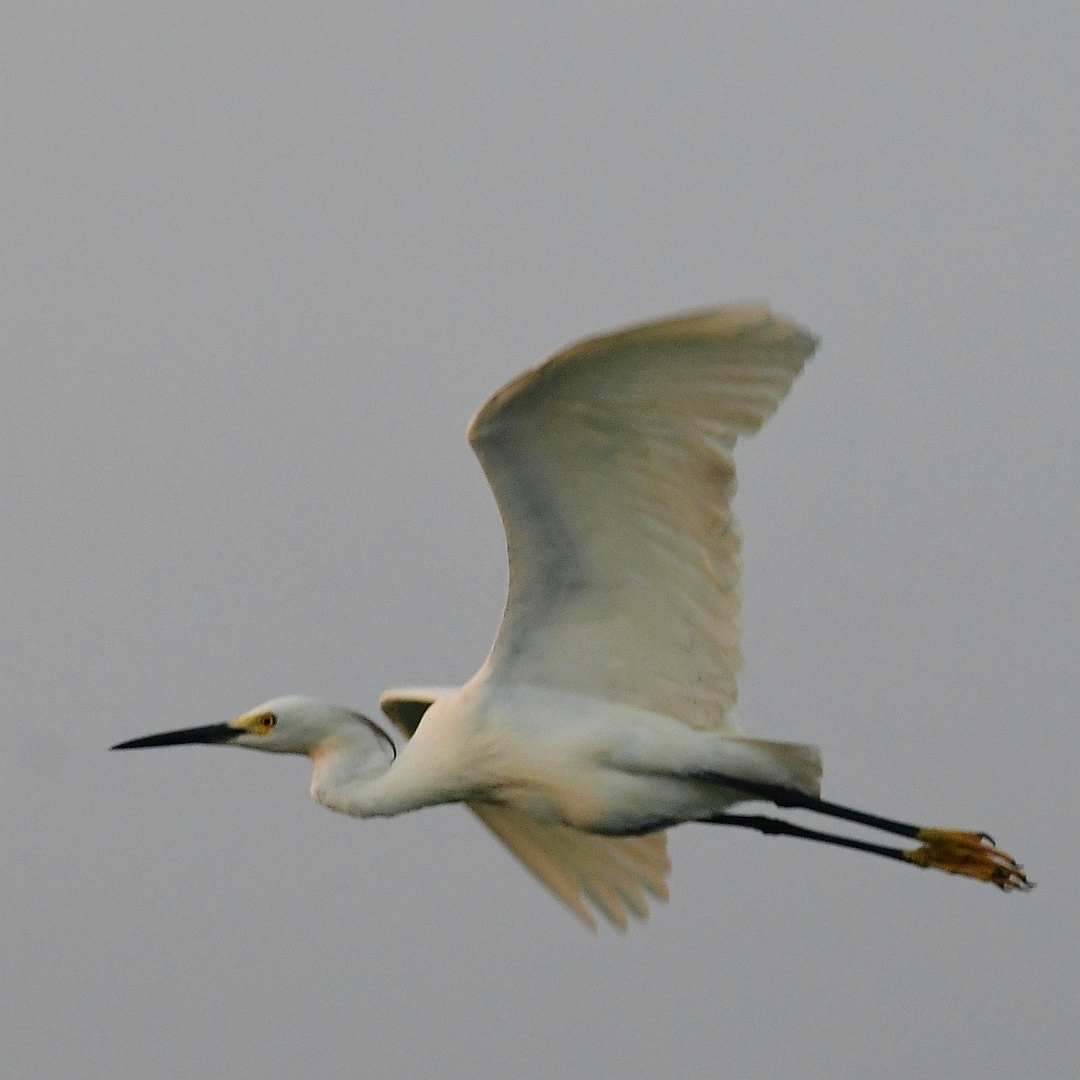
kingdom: Animalia
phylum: Chordata
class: Aves
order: Pelecaniformes
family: Ardeidae
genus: Egretta
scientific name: Egretta thula
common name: Snowy egret
